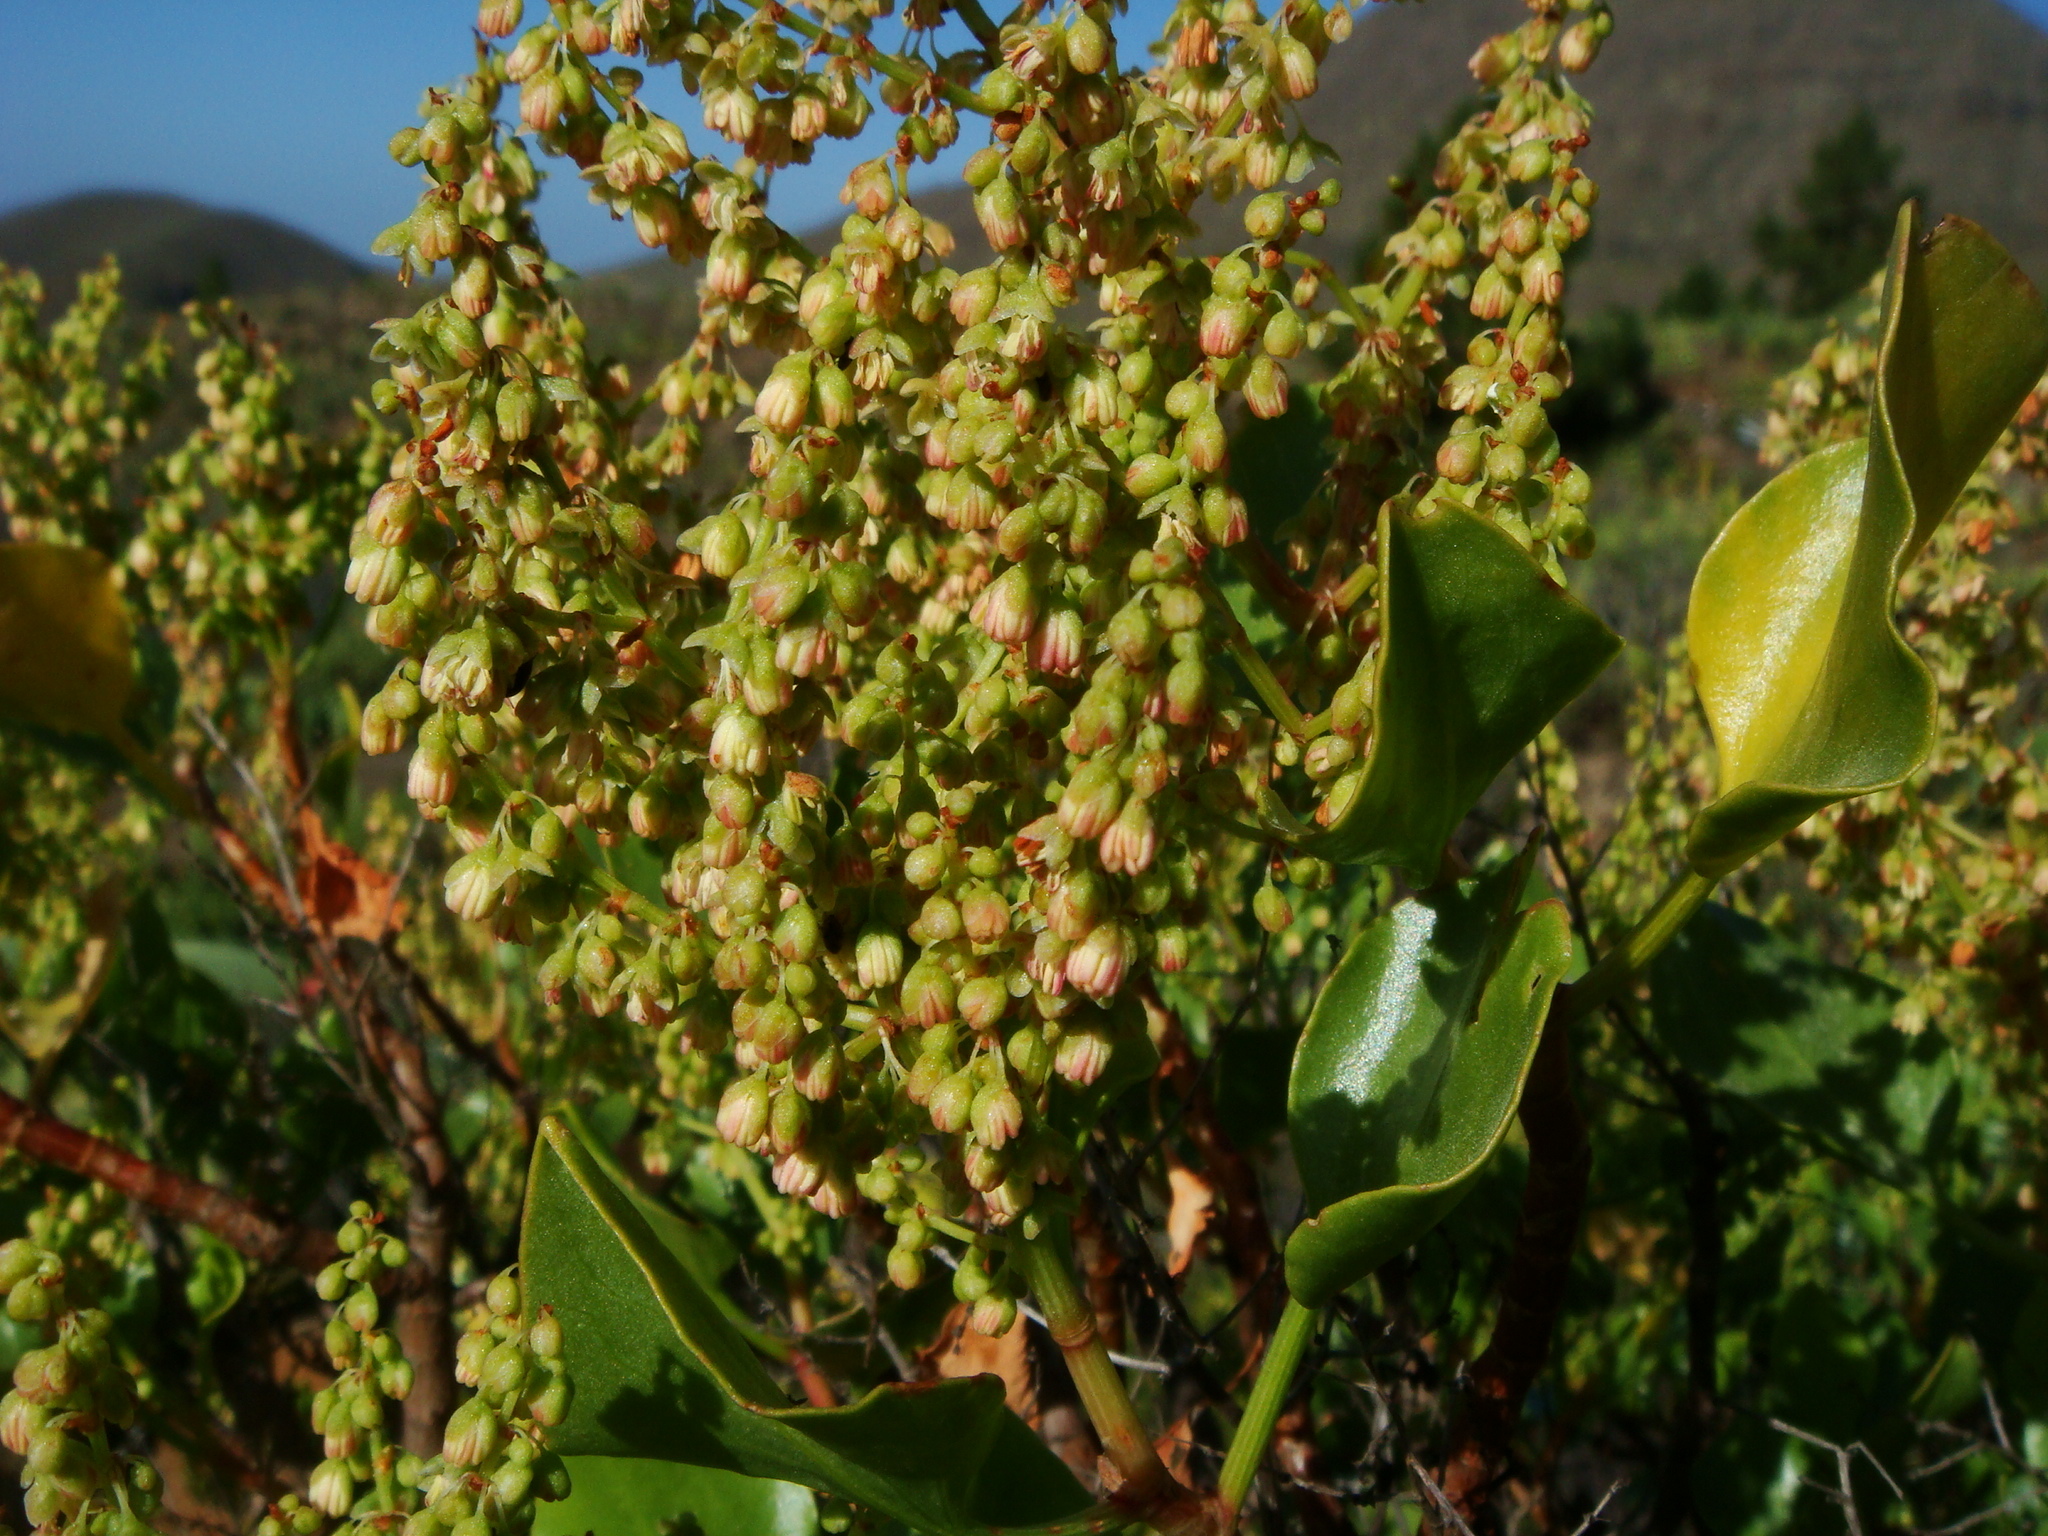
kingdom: Plantae
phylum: Tracheophyta
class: Magnoliopsida
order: Caryophyllales
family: Polygonaceae
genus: Rumex
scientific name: Rumex lunaria
